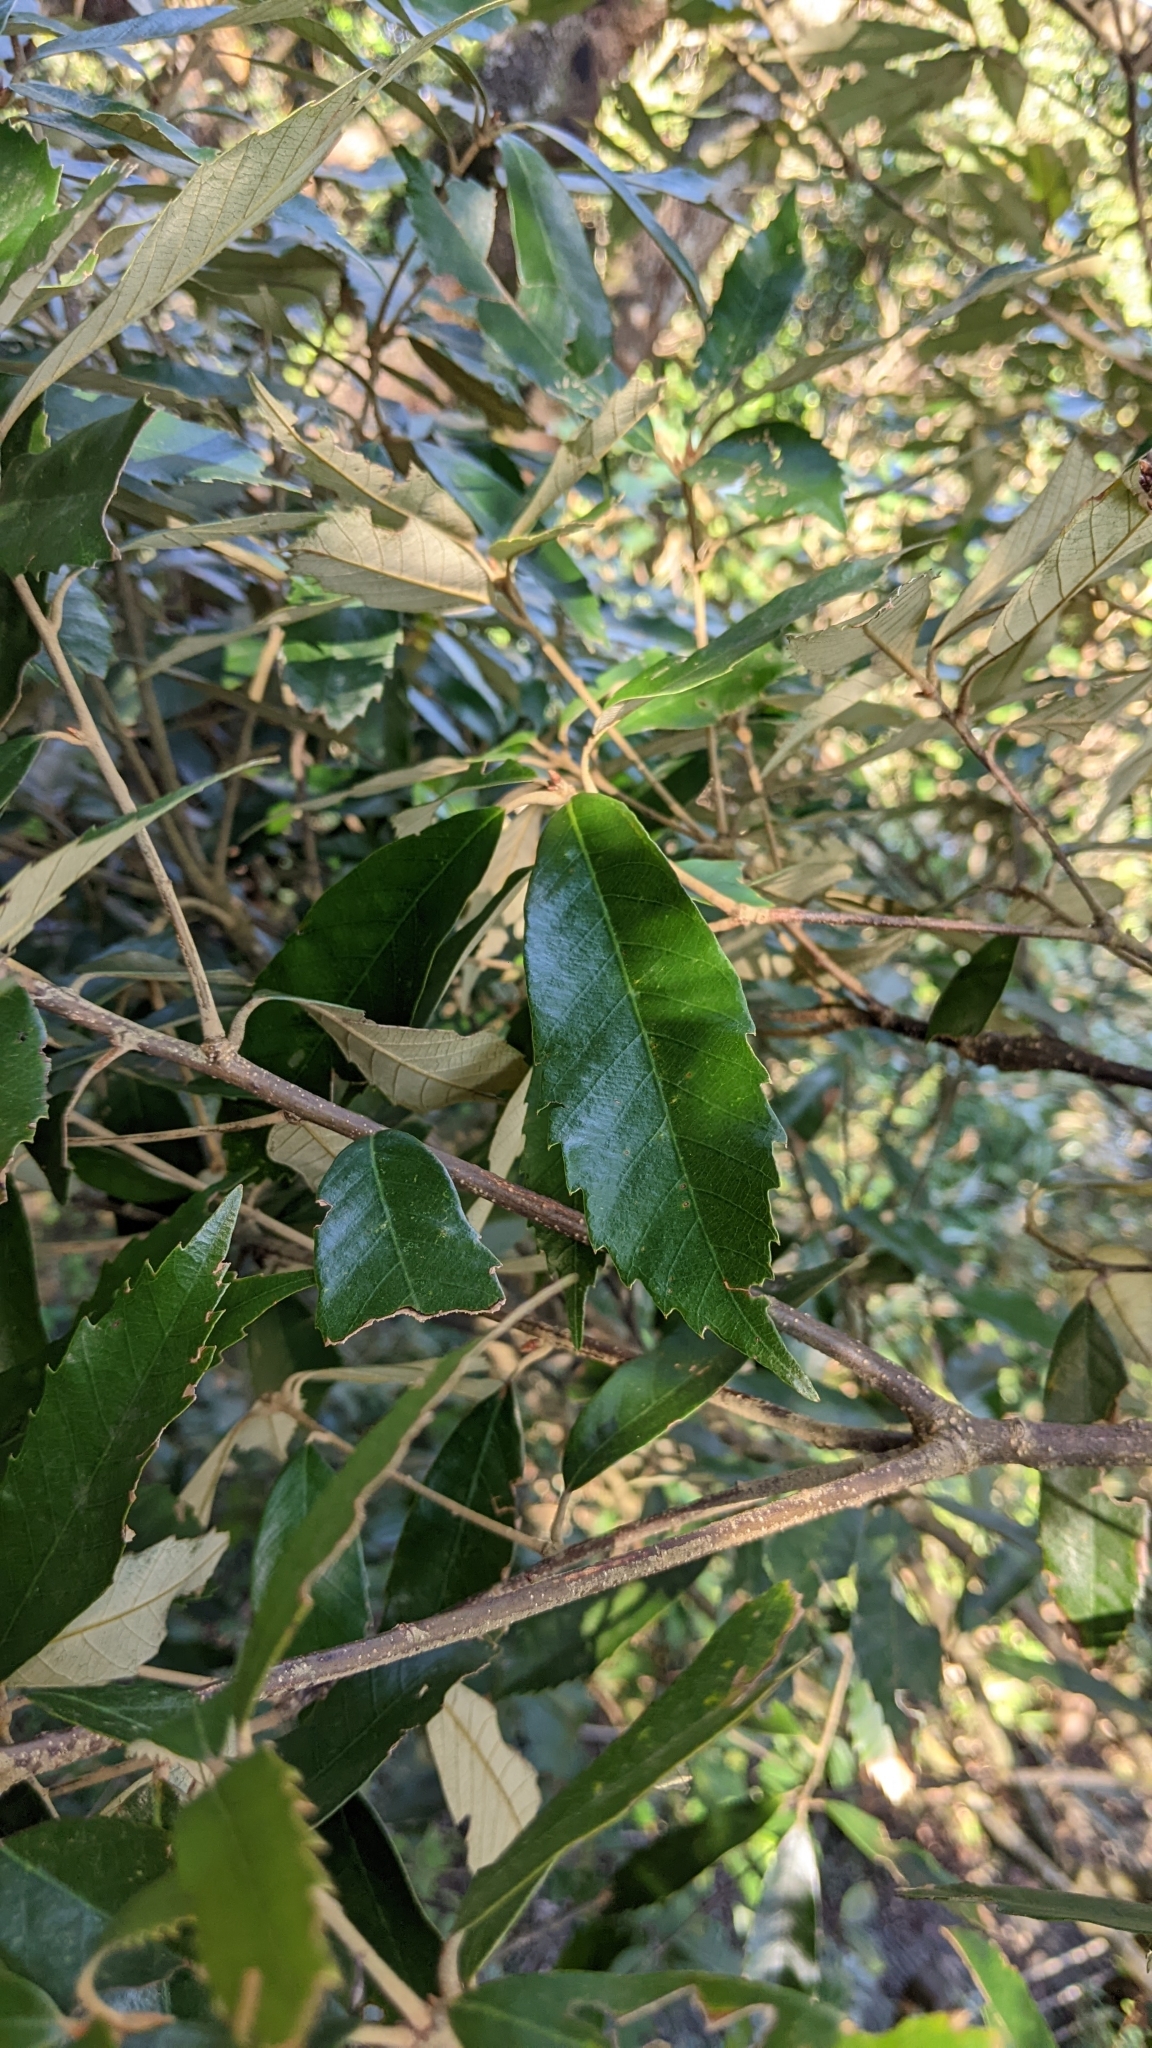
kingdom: Plantae
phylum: Tracheophyta
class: Magnoliopsida
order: Fagales
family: Fagaceae
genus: Quercus
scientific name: Quercus gilva
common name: Redbark oak
